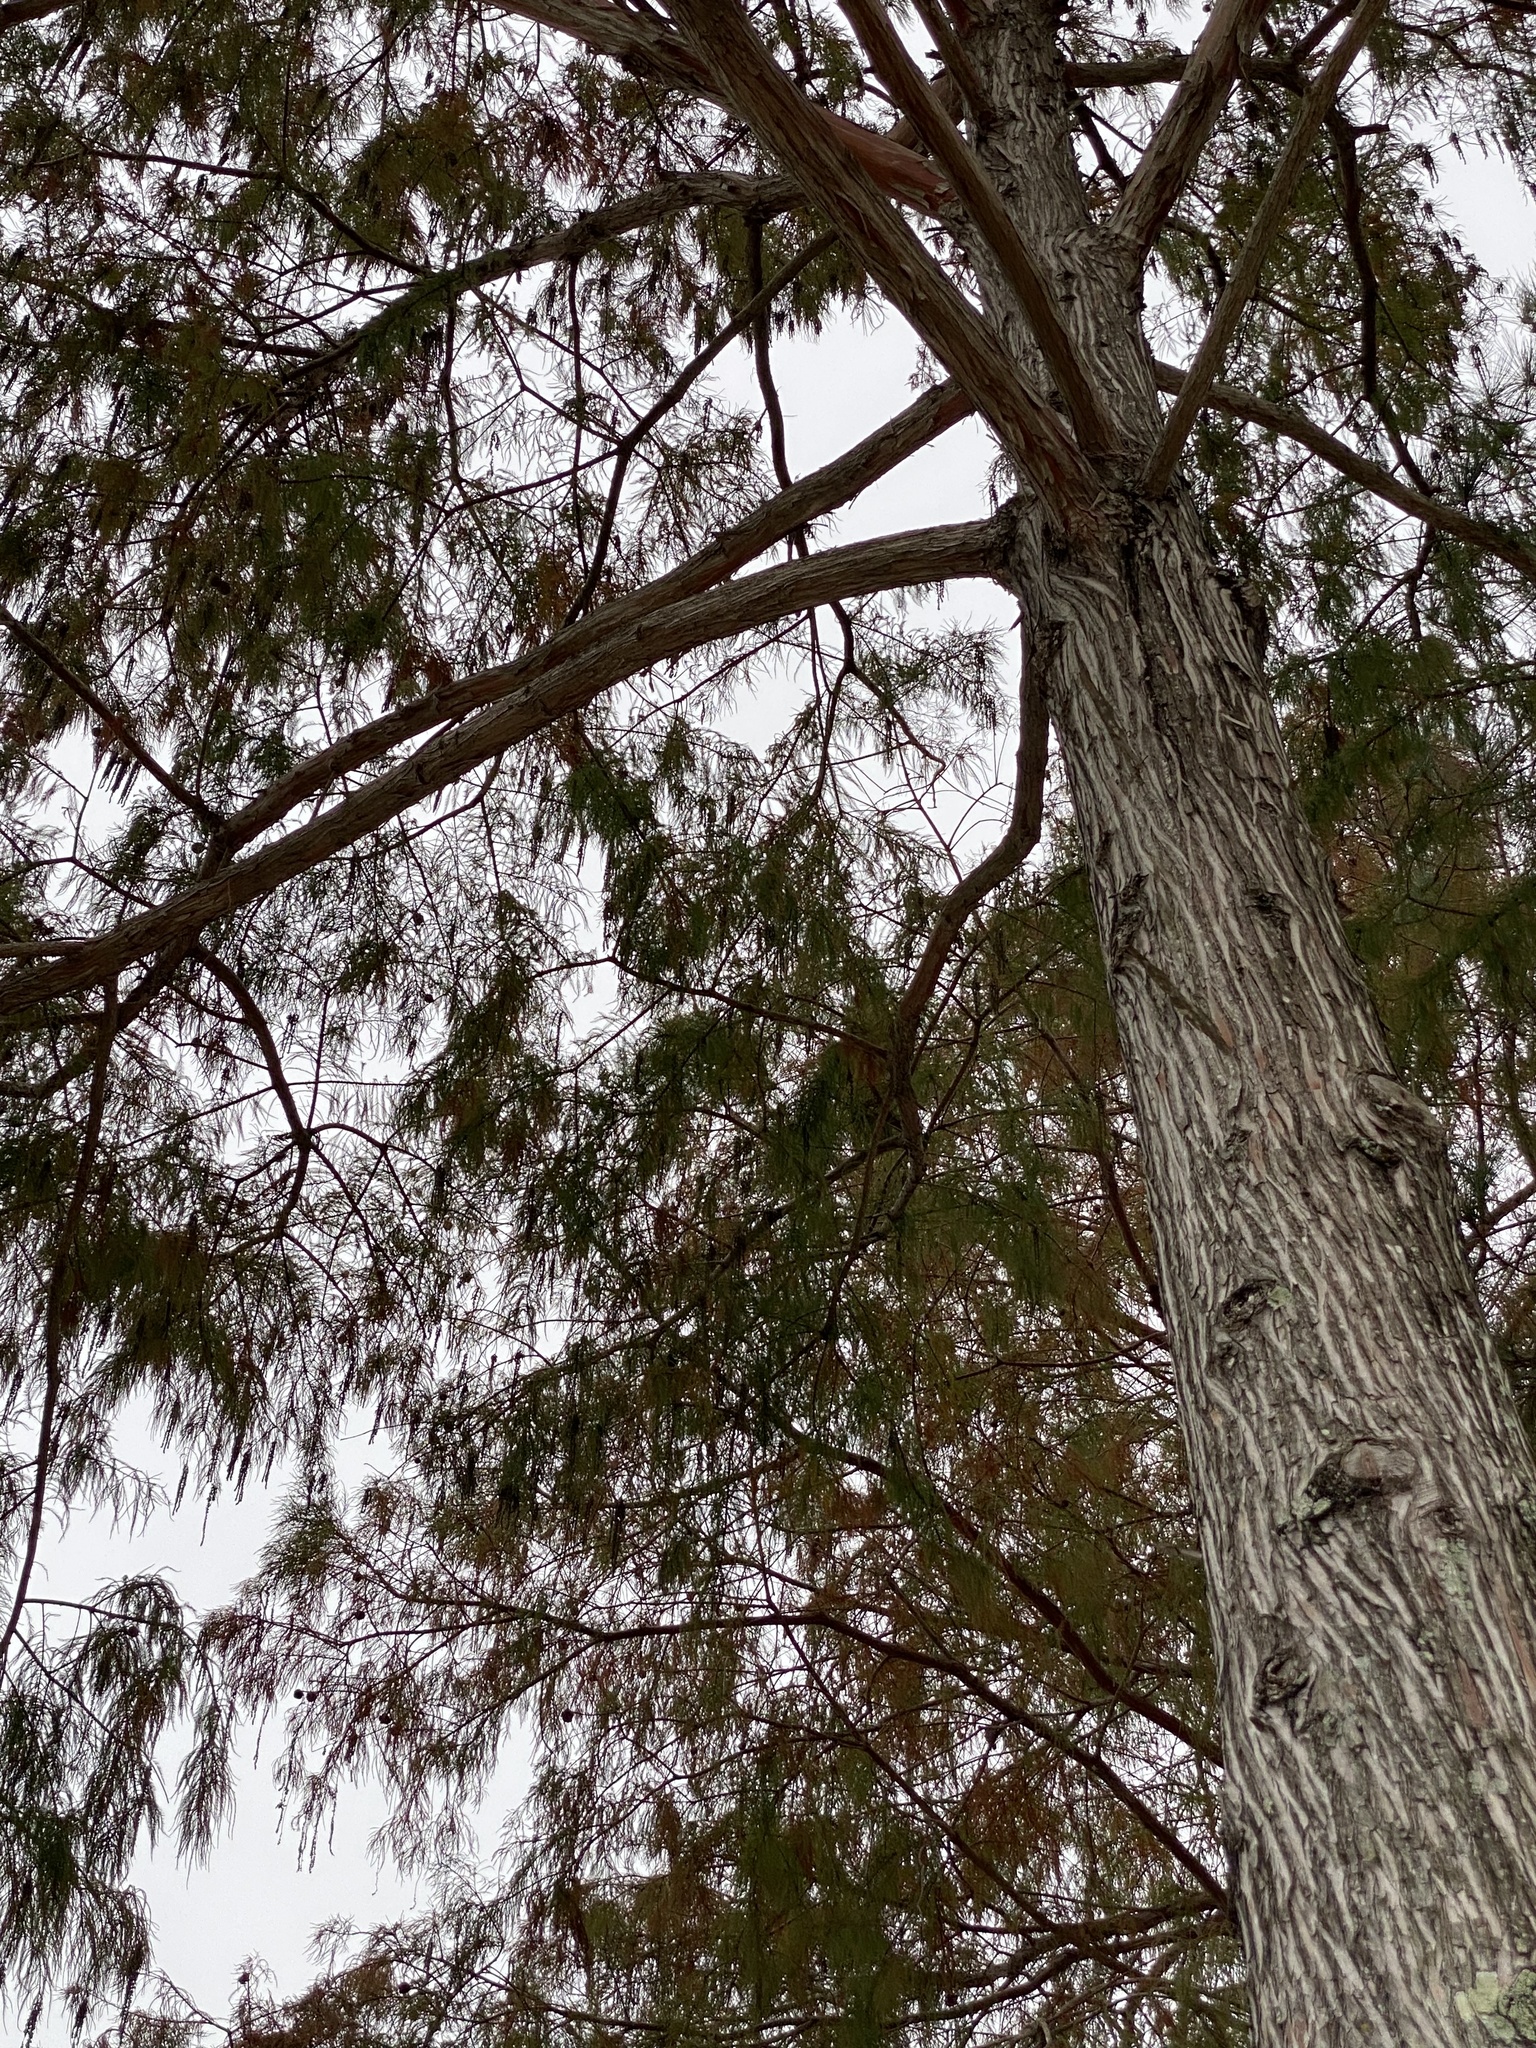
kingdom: Plantae
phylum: Tracheophyta
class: Pinopsida
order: Pinales
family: Cupressaceae
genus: Taxodium
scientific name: Taxodium distichum
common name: Bald cypress
